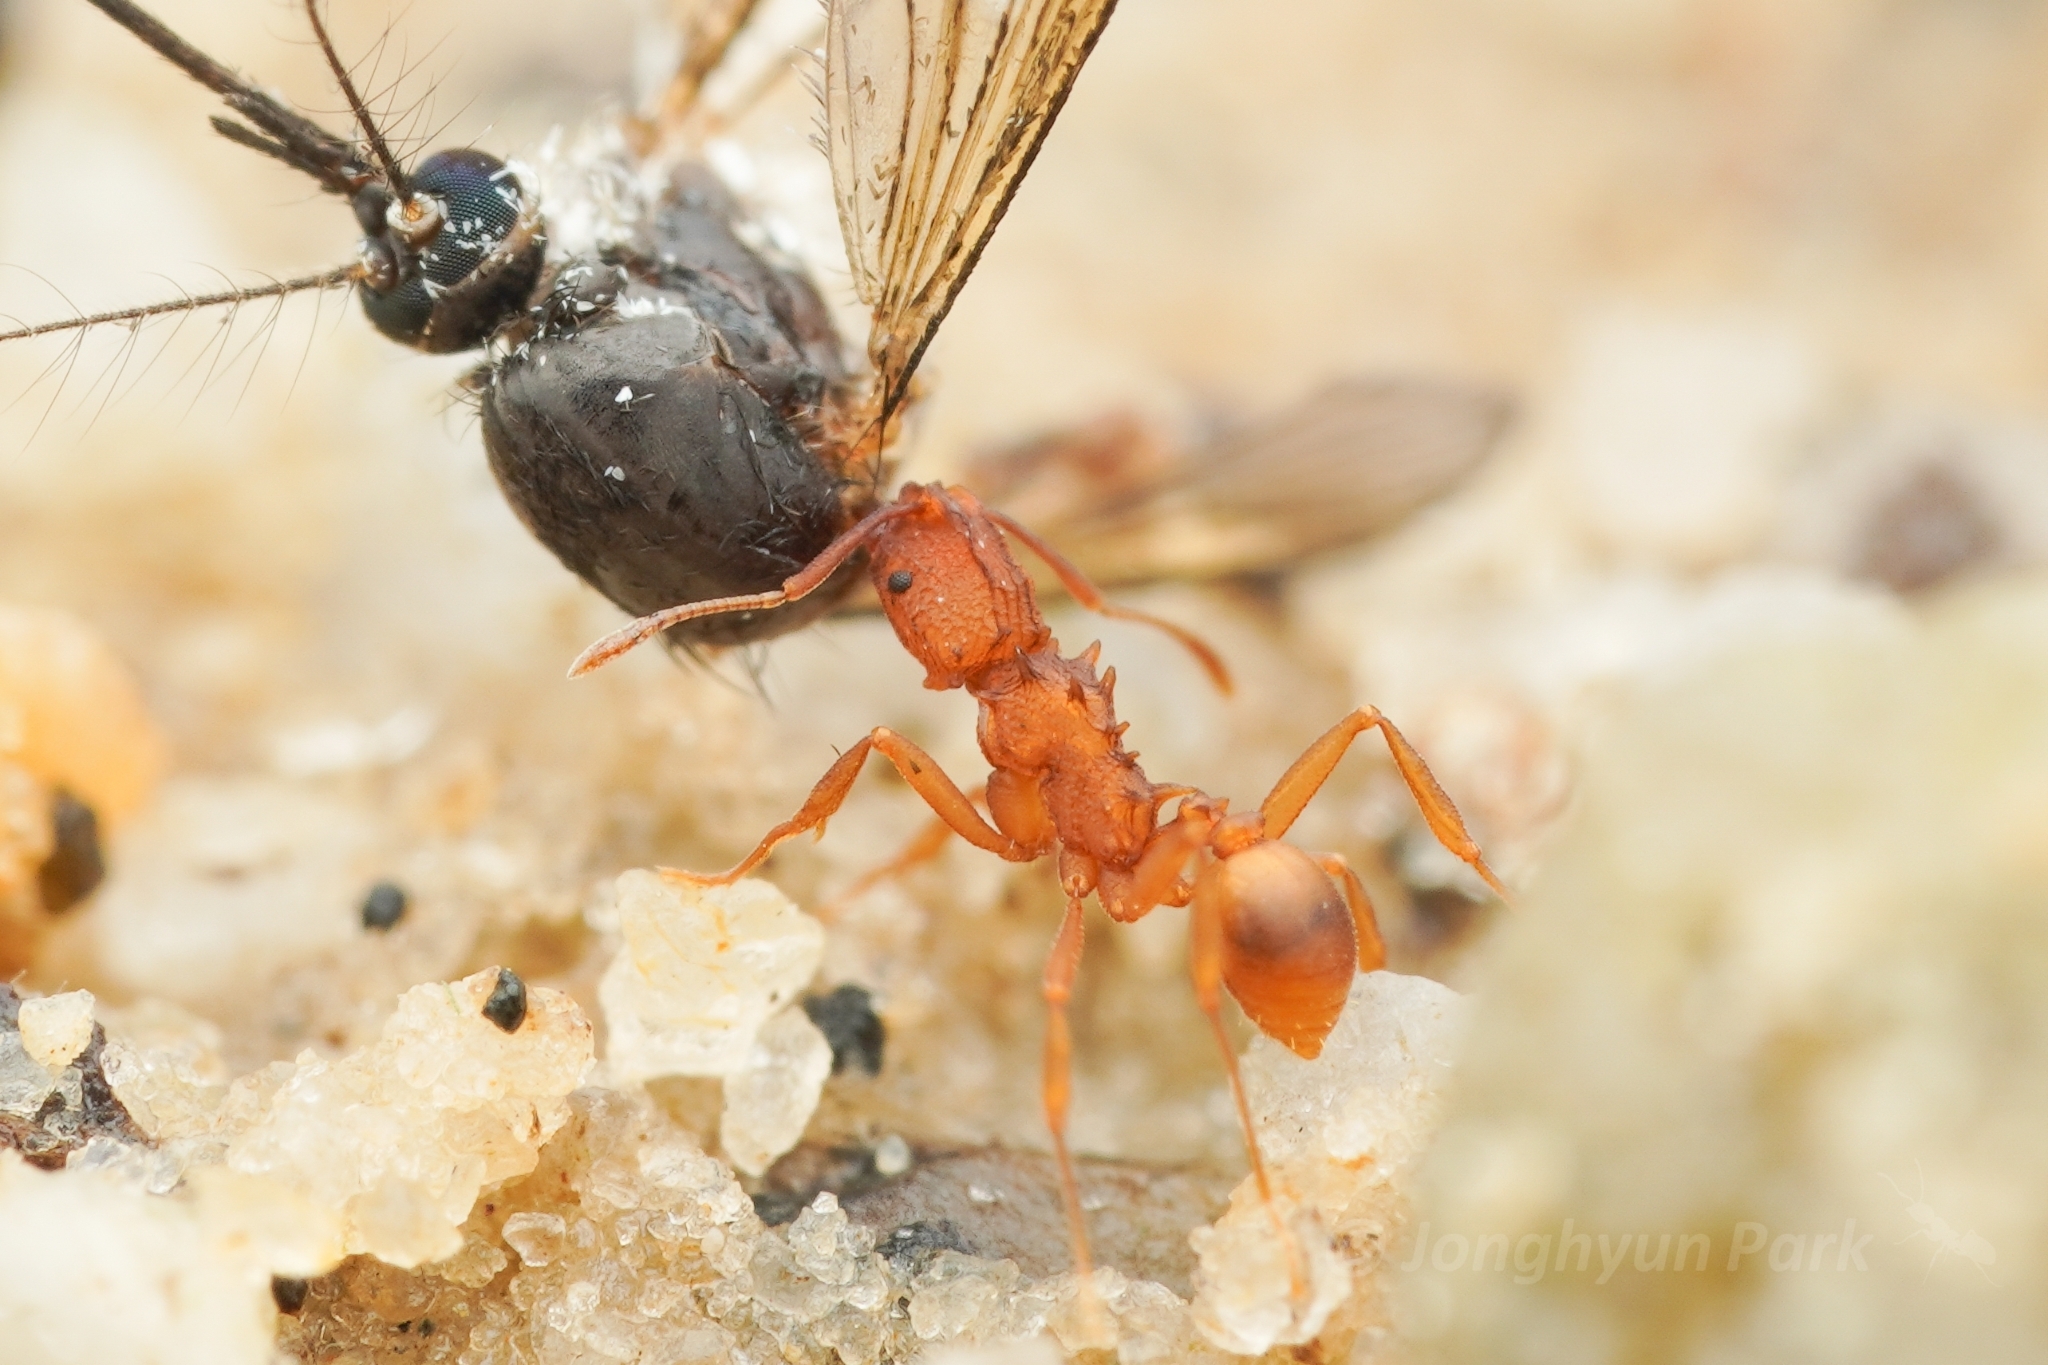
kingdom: Animalia
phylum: Arthropoda
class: Insecta
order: Hymenoptera
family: Formicidae
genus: Proatta
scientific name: Proatta butteli
